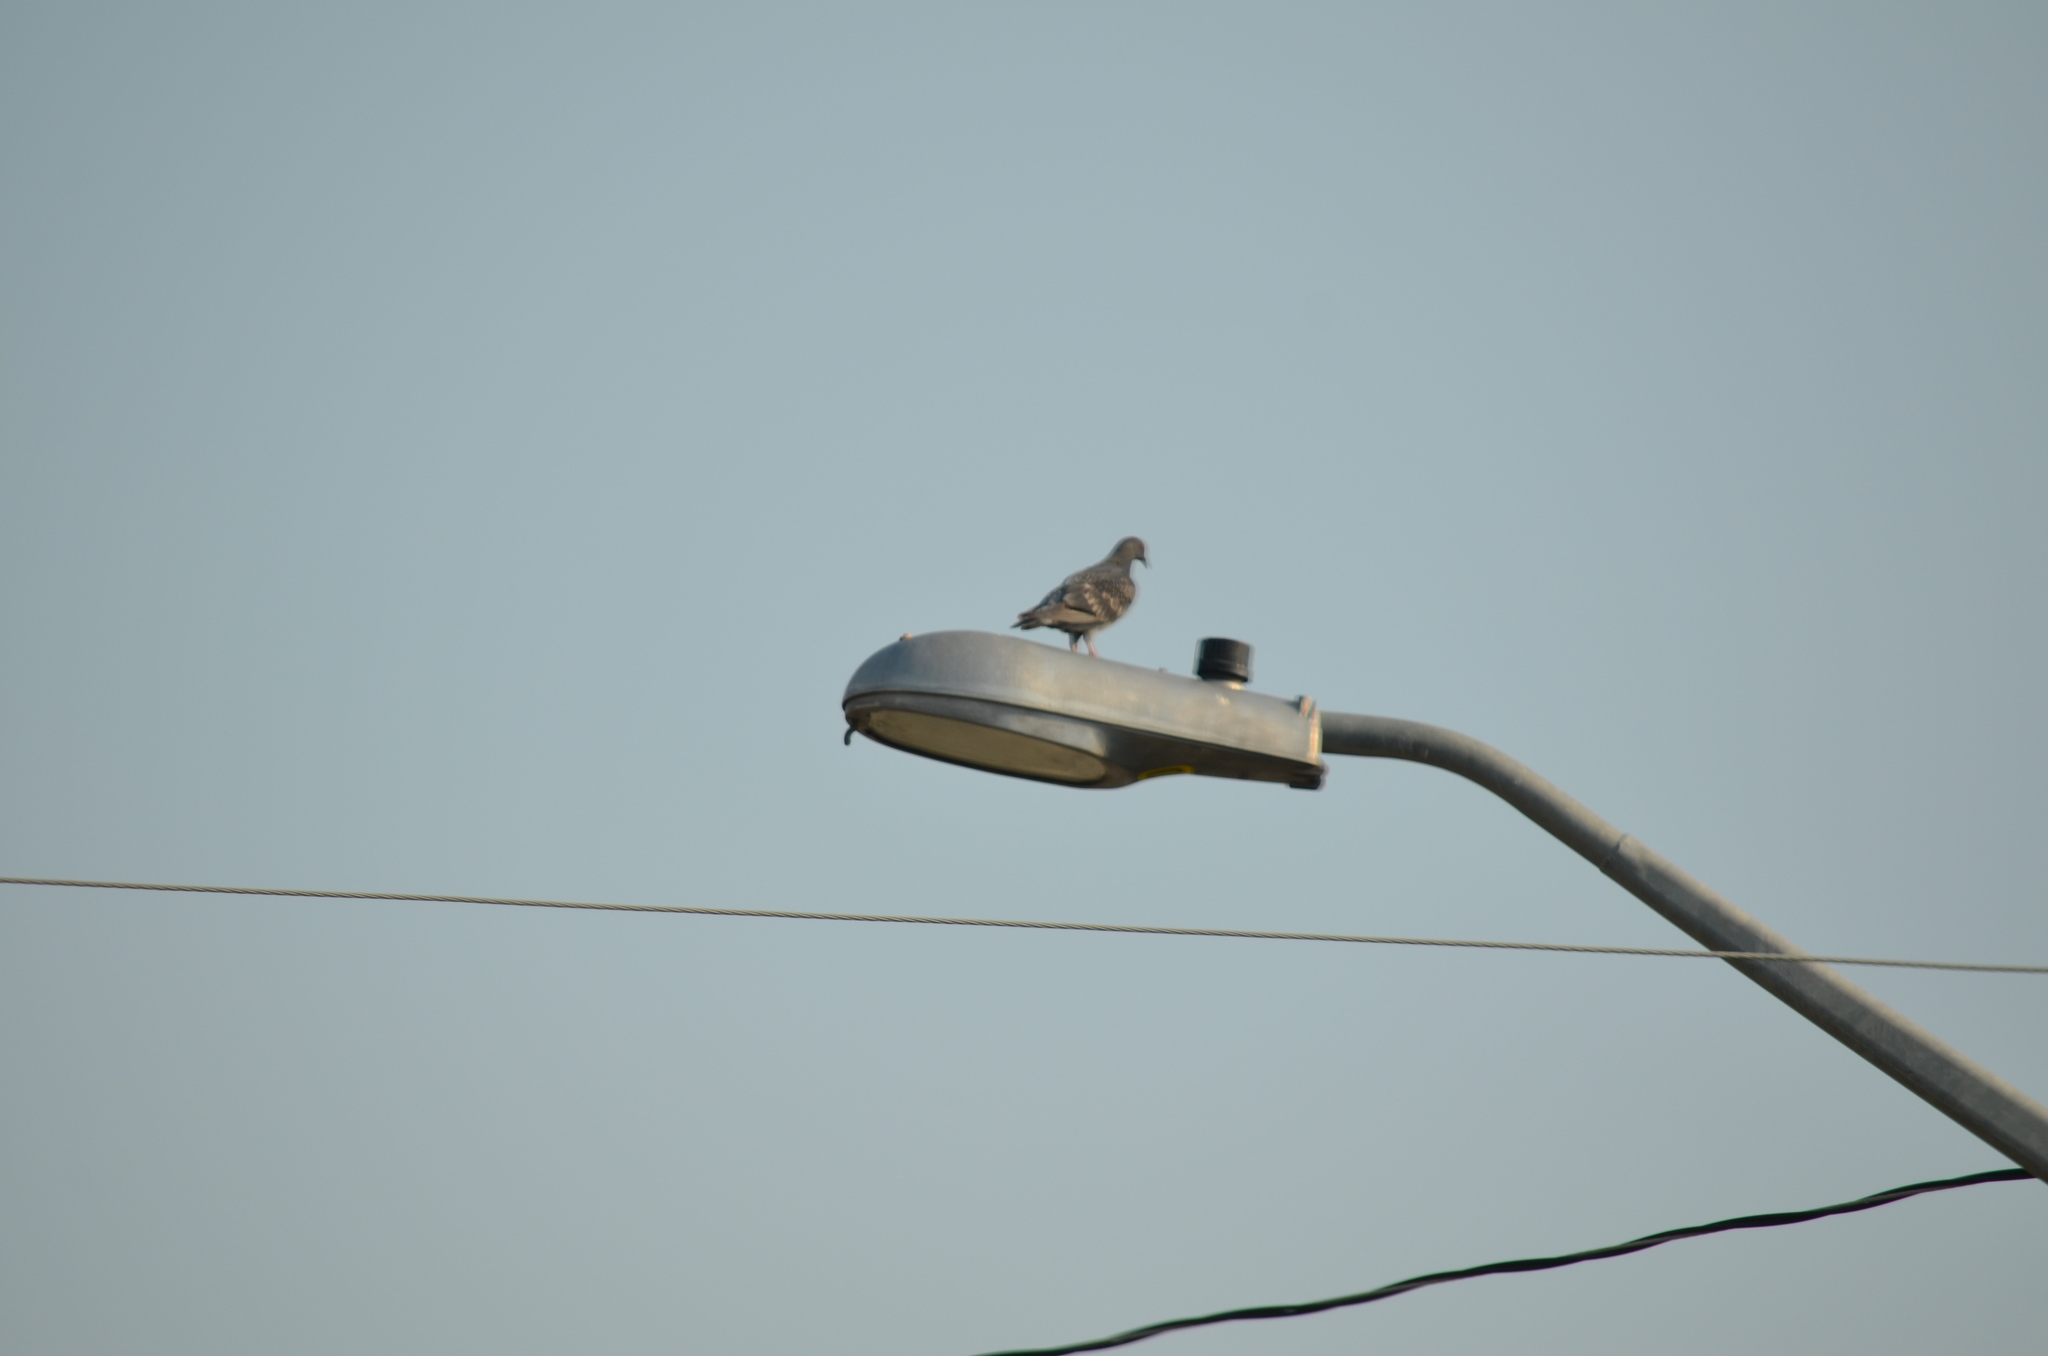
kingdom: Animalia
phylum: Chordata
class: Aves
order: Columbiformes
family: Columbidae
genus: Columba
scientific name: Columba livia
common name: Rock pigeon
